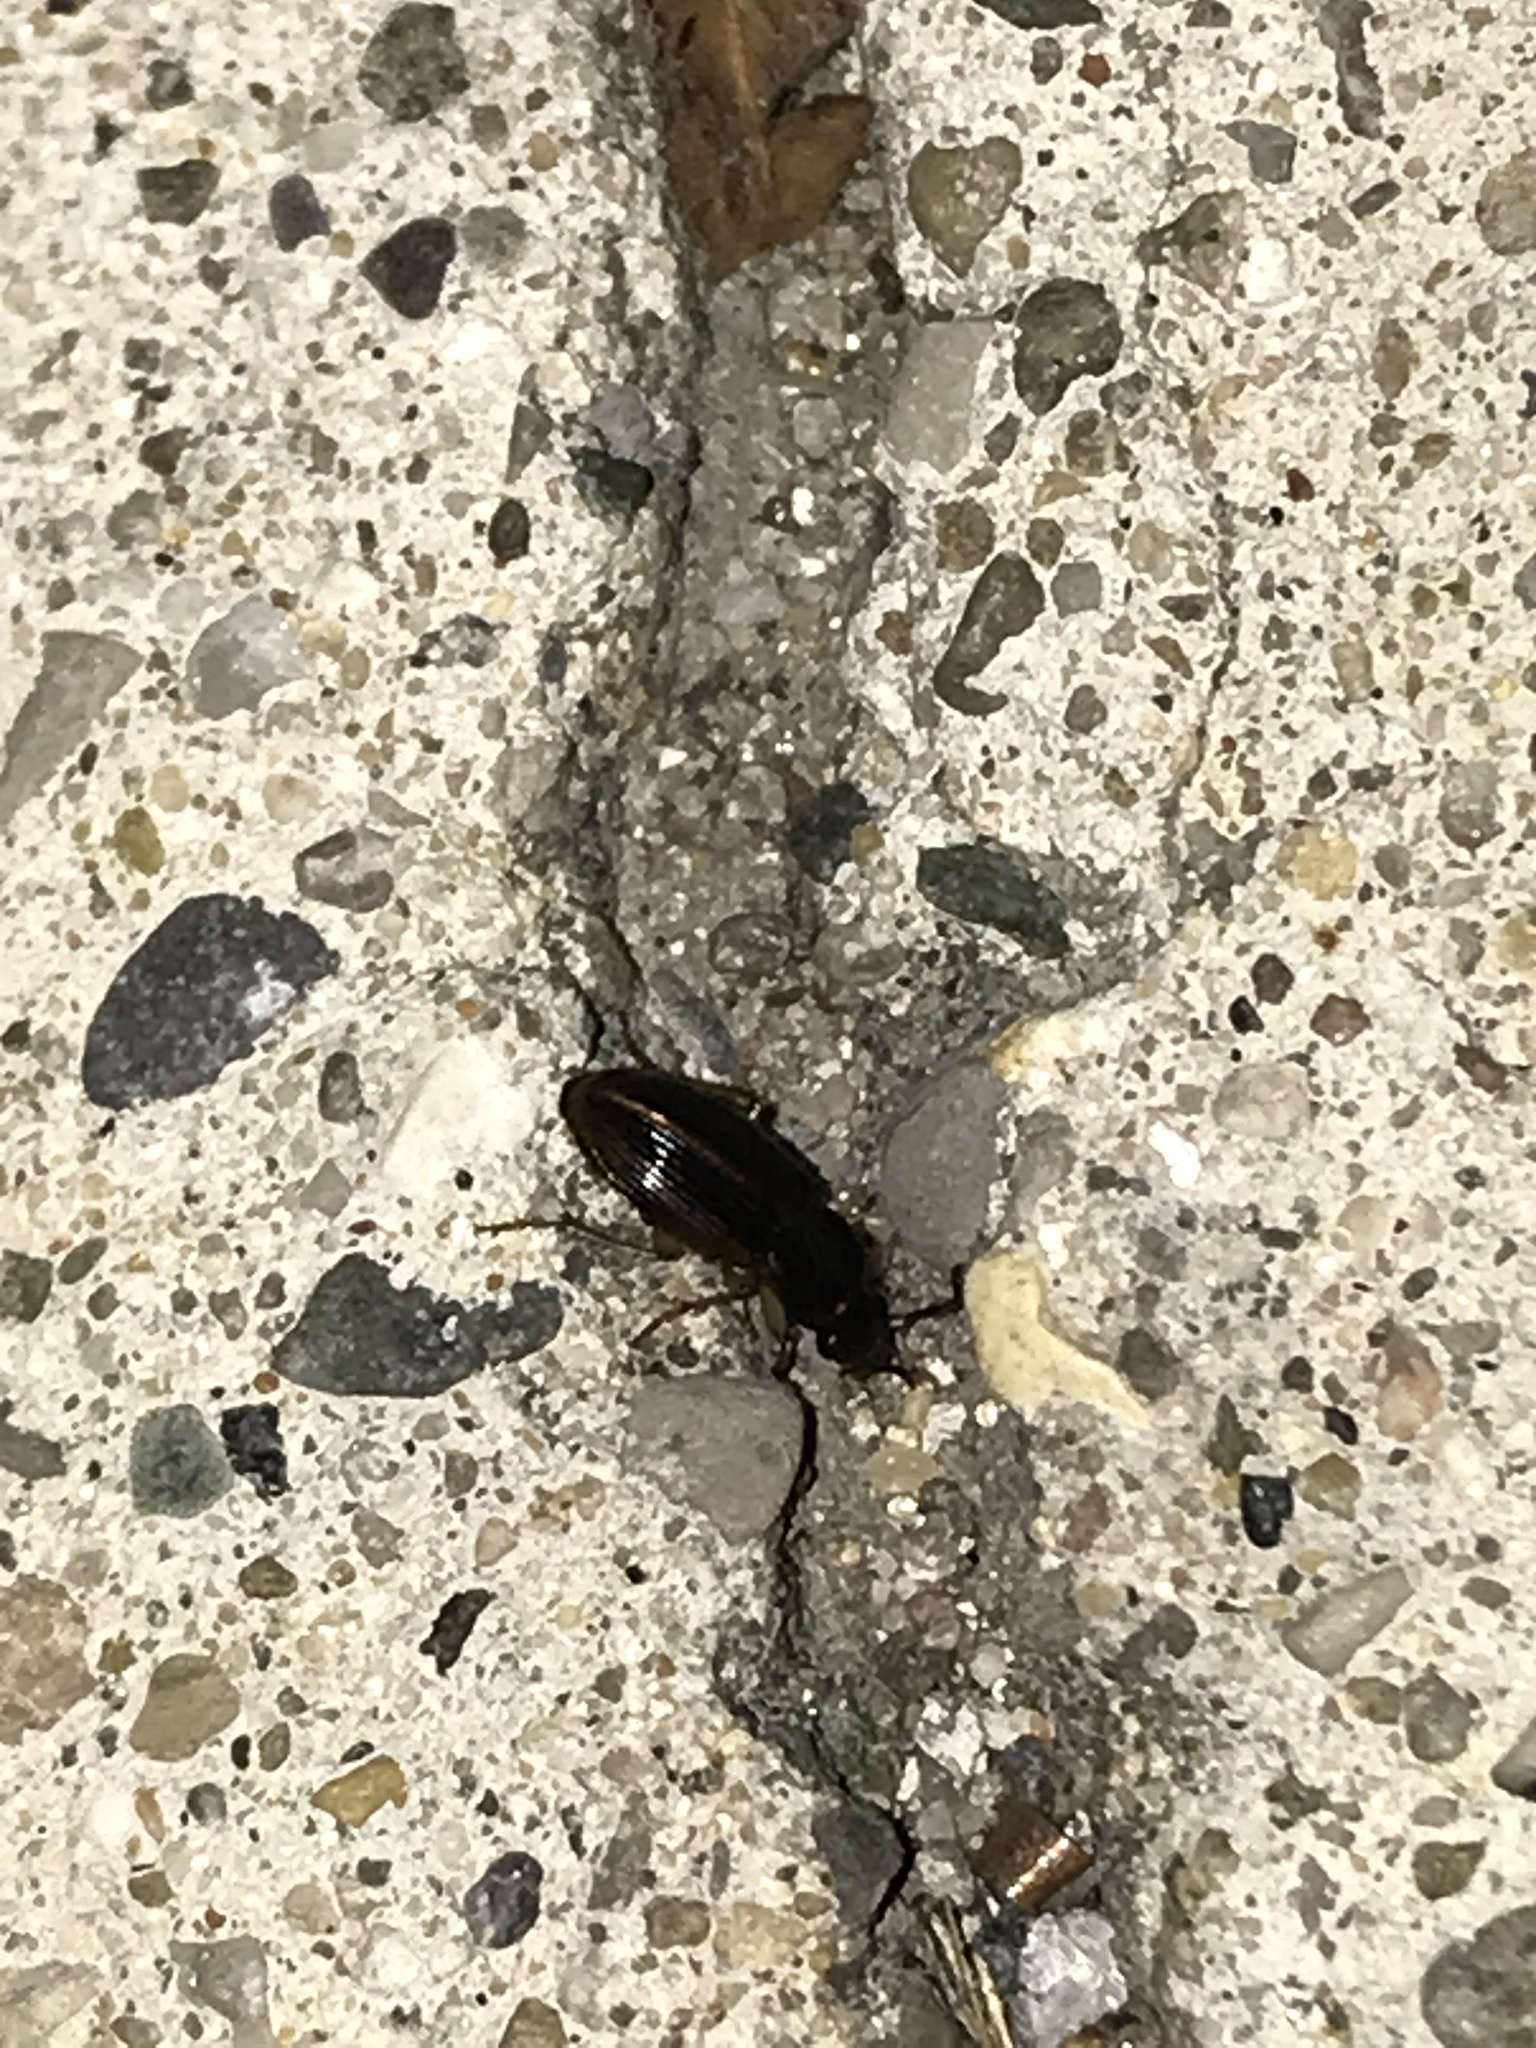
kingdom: Animalia
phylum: Arthropoda
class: Insecta
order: Coleoptera
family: Carabidae
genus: Stenolophus
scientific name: Stenolophus ochropezus
